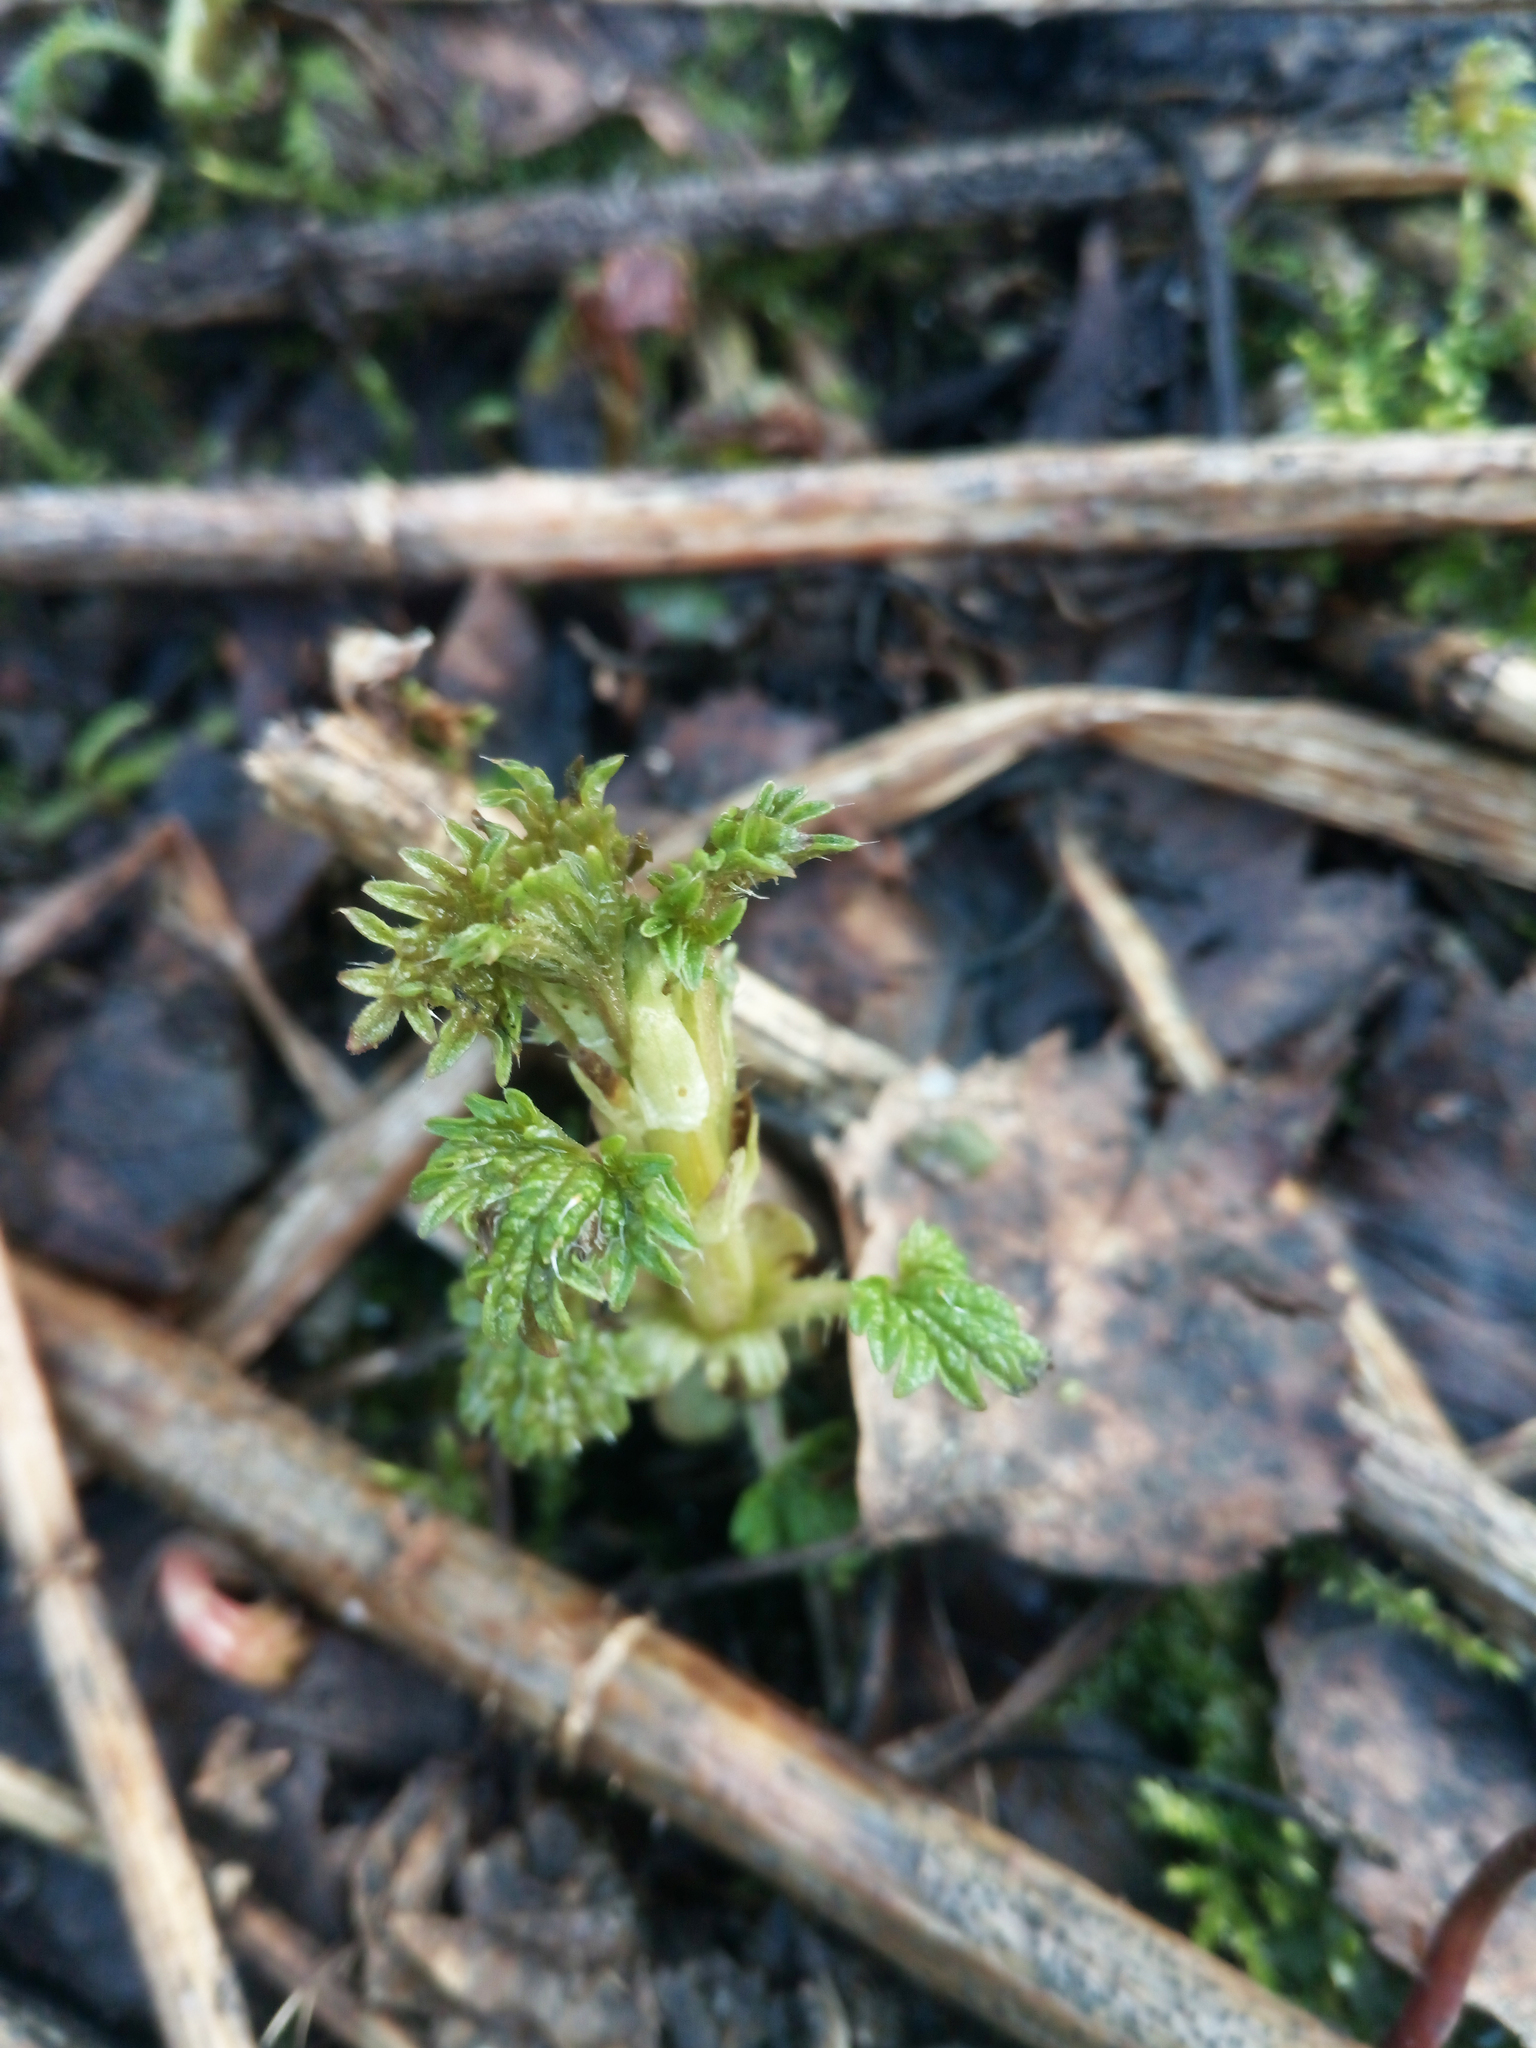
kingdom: Plantae
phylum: Tracheophyta
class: Magnoliopsida
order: Rosales
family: Urticaceae
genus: Urtica
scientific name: Urtica dioica
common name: Common nettle
